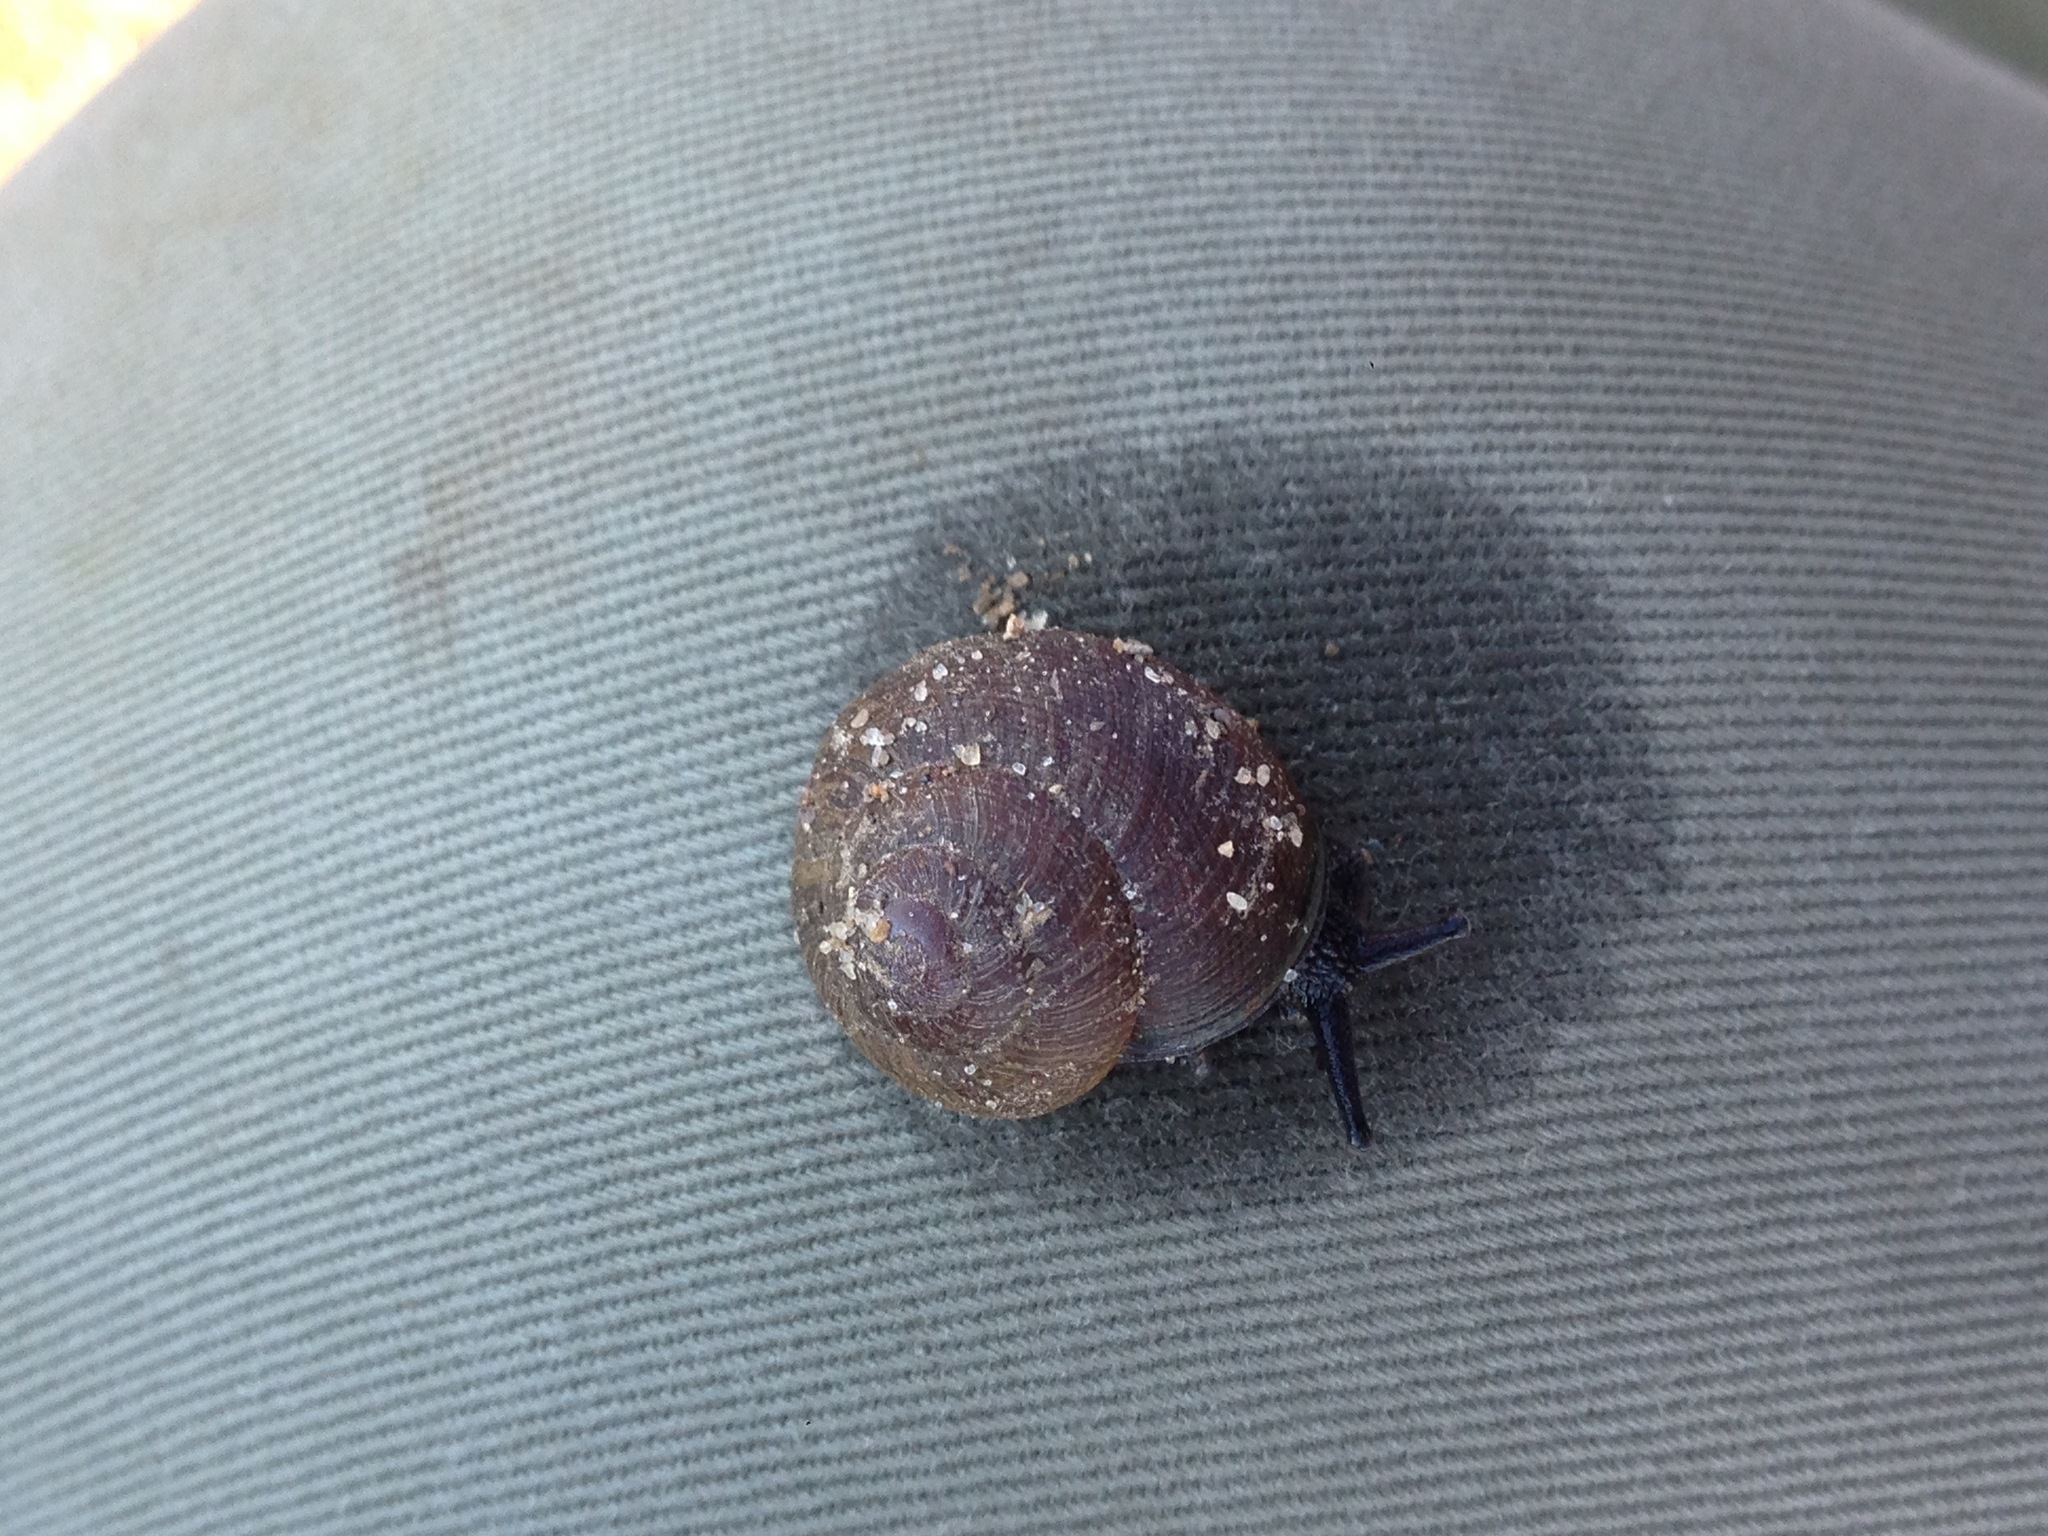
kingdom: Animalia
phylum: Mollusca
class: Gastropoda
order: Stylommatophora
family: Xanthonychidae
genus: Xerarionta
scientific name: Xerarionta intercisa
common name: Plain cactus snail
